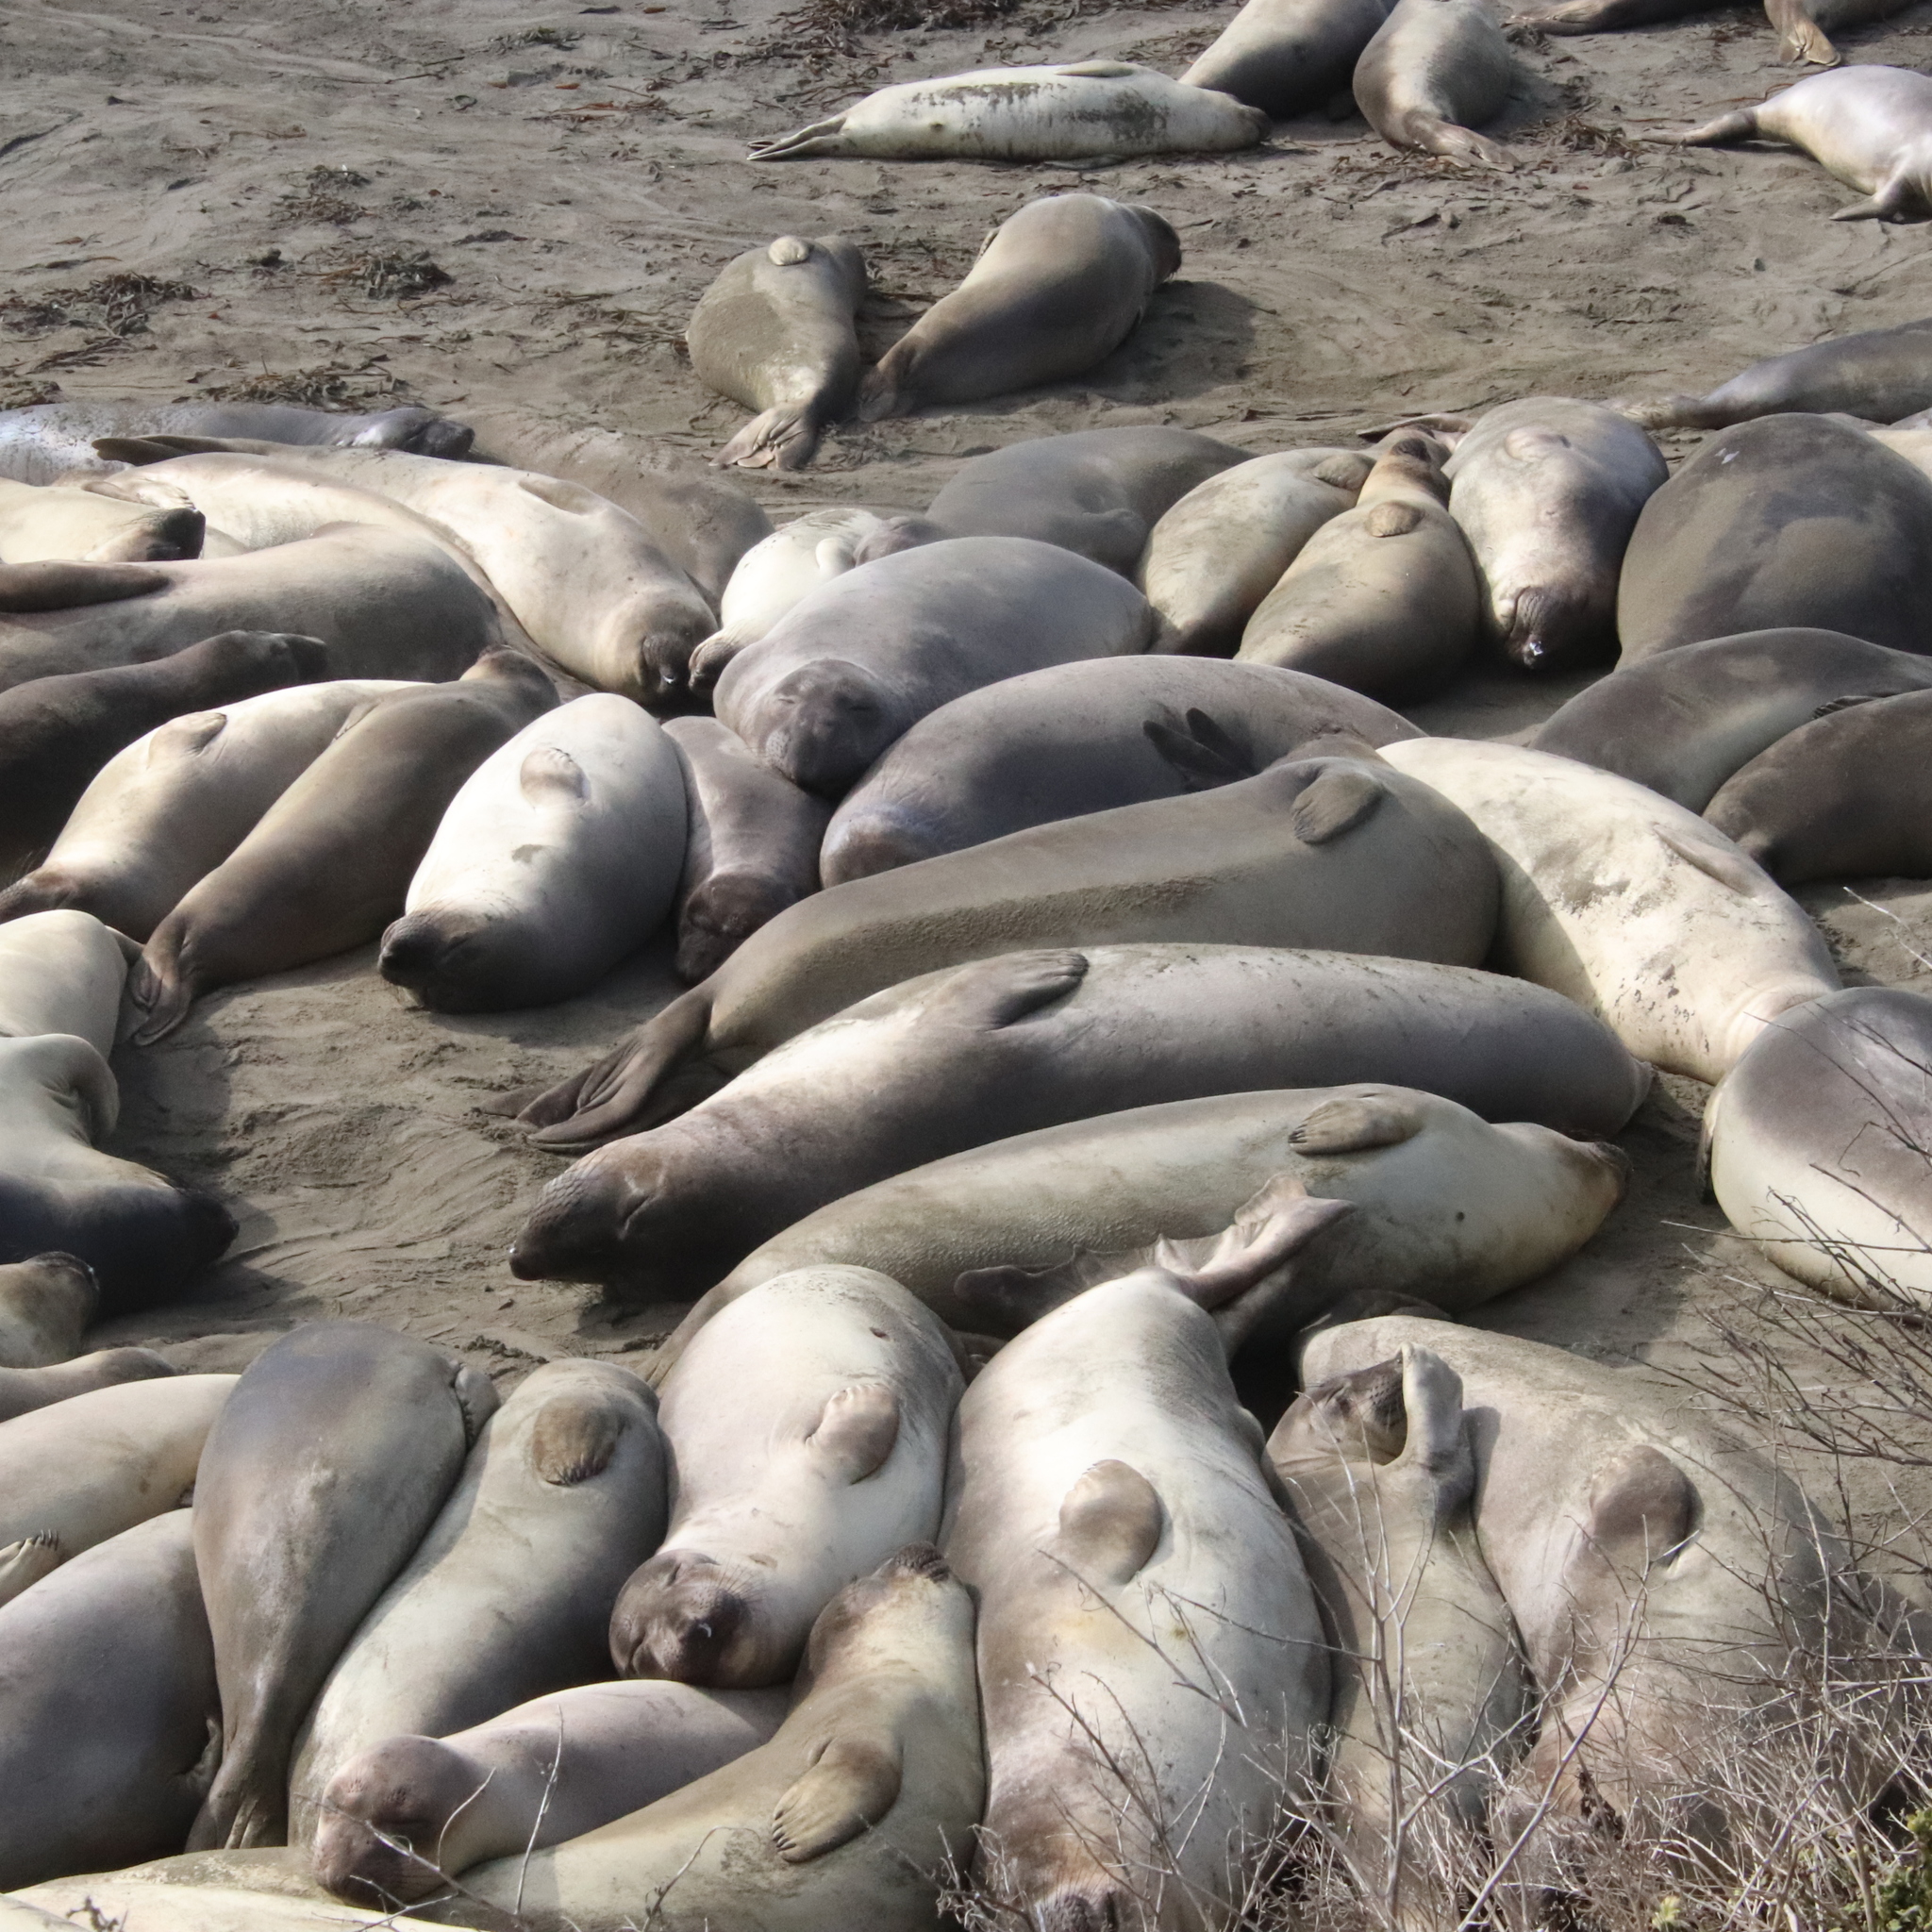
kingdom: Animalia
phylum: Chordata
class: Mammalia
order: Carnivora
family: Phocidae
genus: Mirounga
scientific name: Mirounga angustirostris
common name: Northern elephant seal
